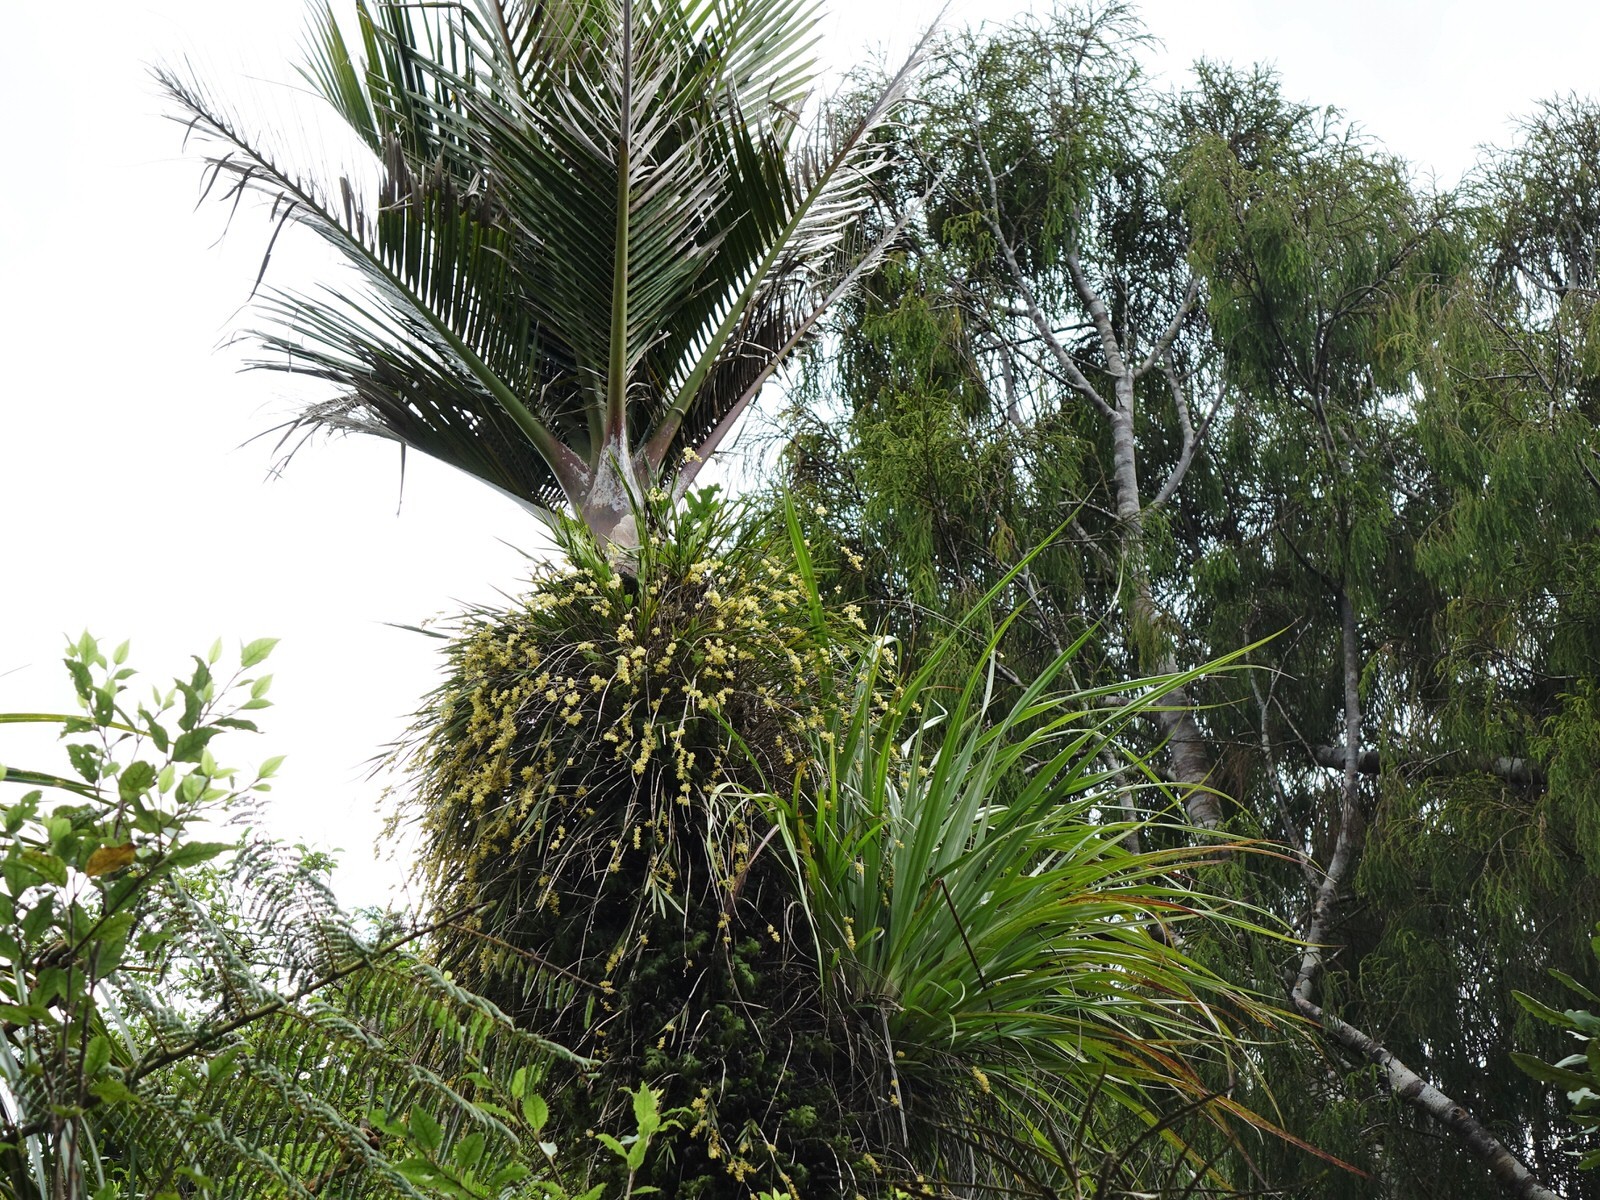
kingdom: Plantae
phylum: Tracheophyta
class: Liliopsida
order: Asparagales
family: Orchidaceae
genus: Earina
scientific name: Earina mucronata
